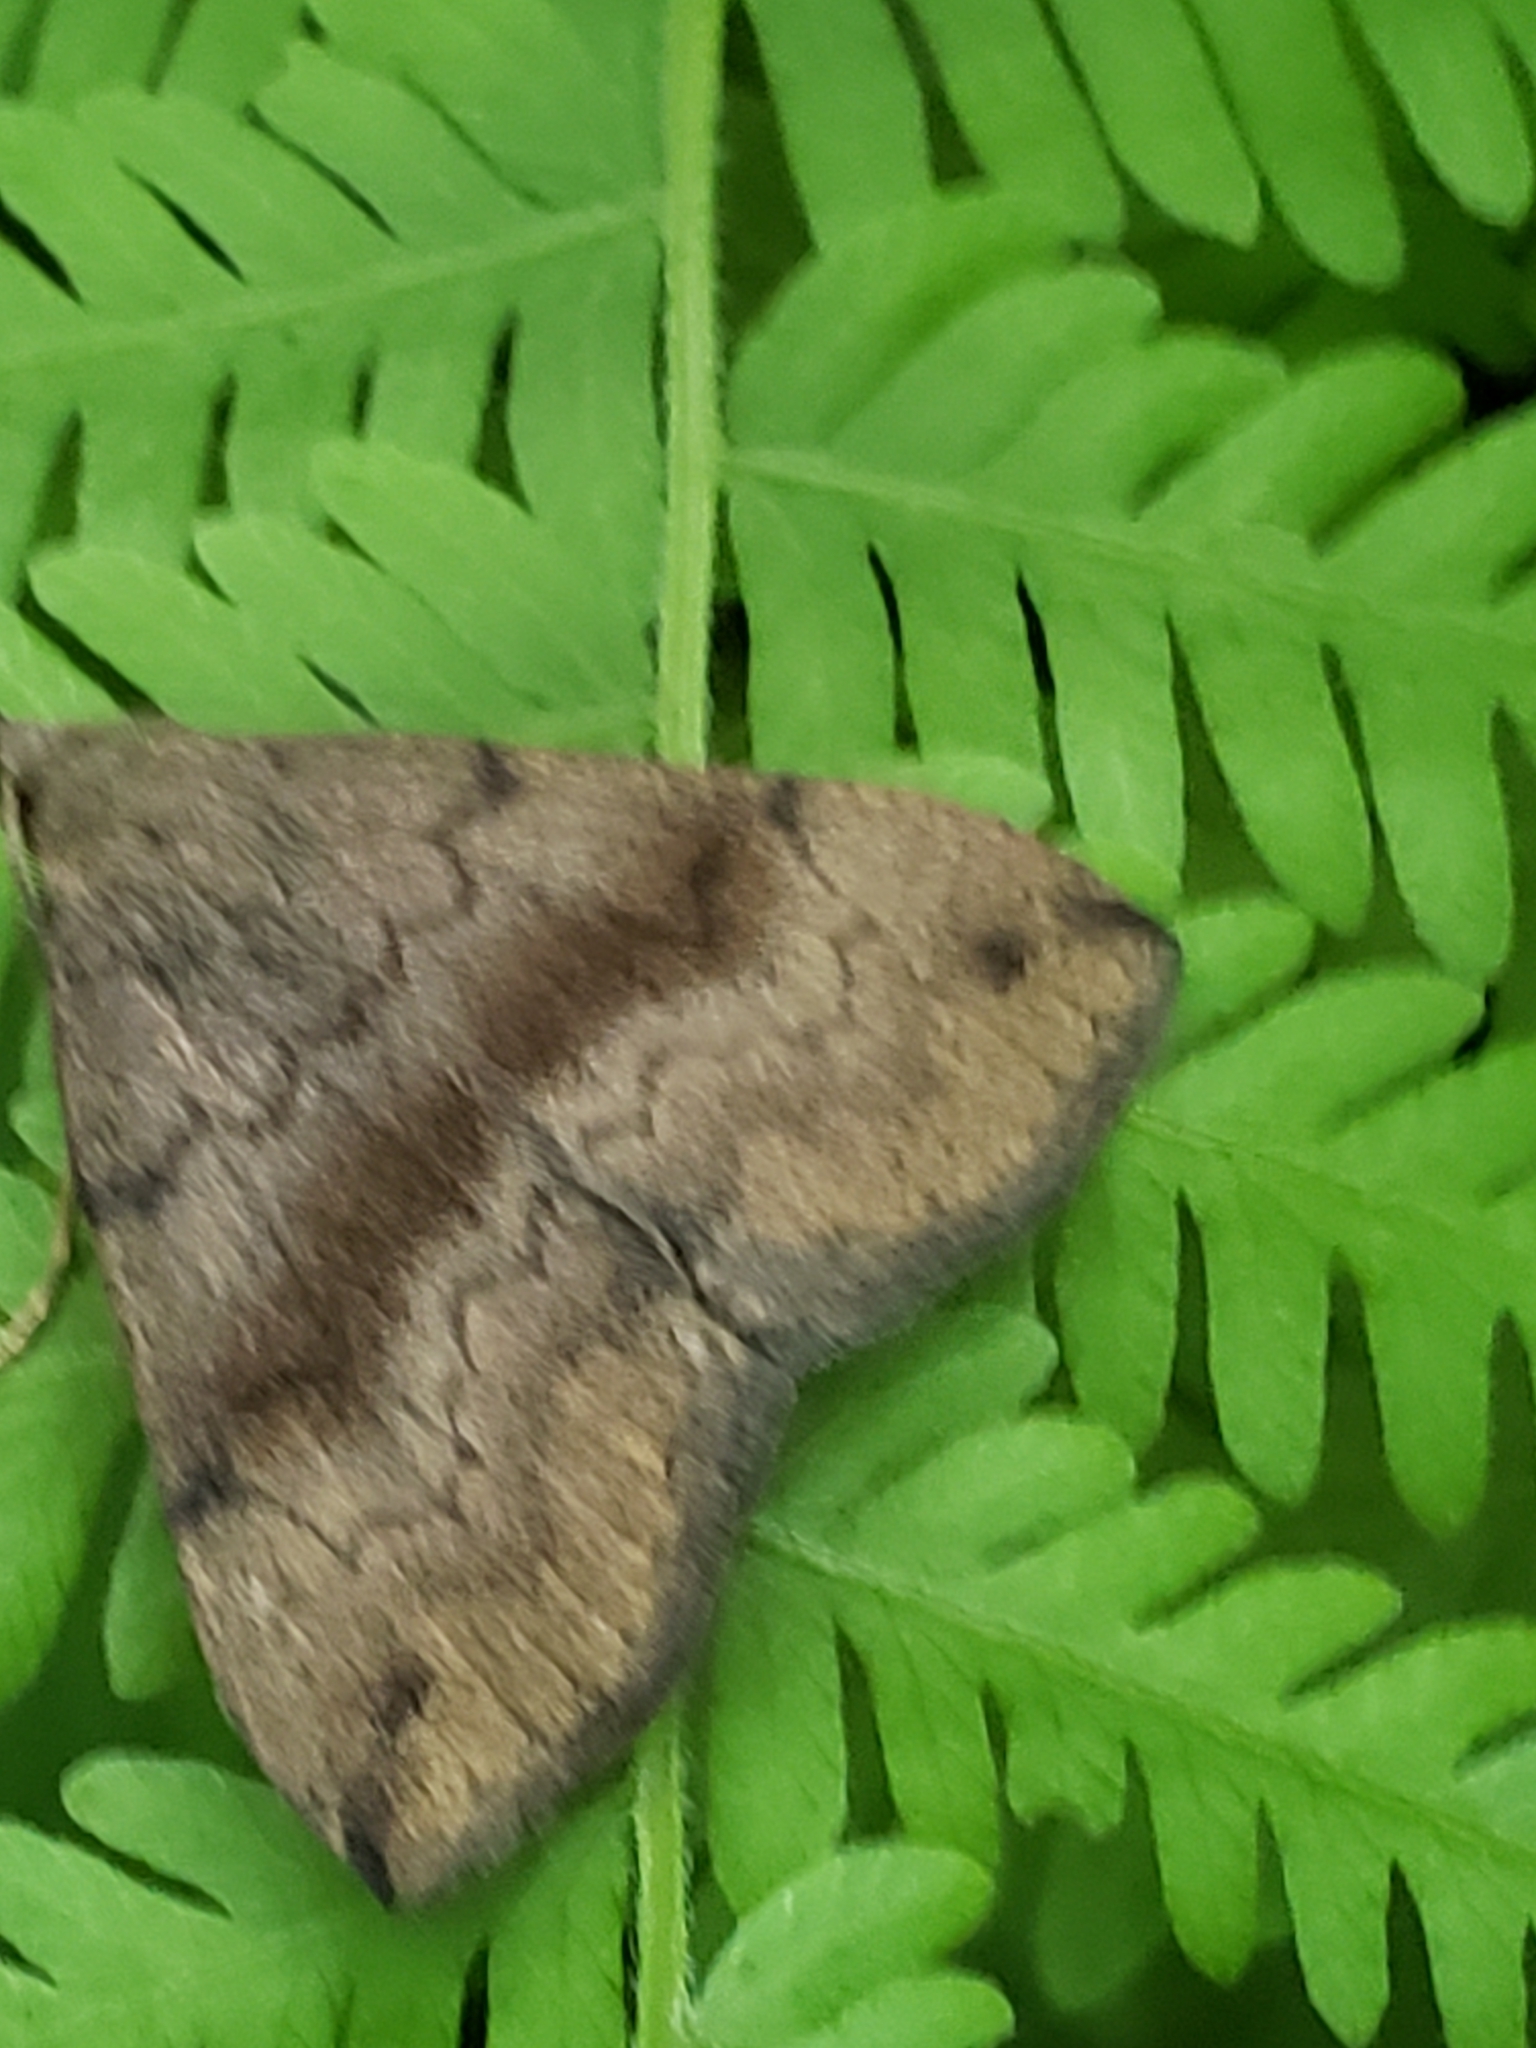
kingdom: Animalia
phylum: Arthropoda
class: Insecta
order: Lepidoptera
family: Erebidae
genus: Phalaenostola
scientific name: Phalaenostola eumelusalis
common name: Dark phalaenostola moth
